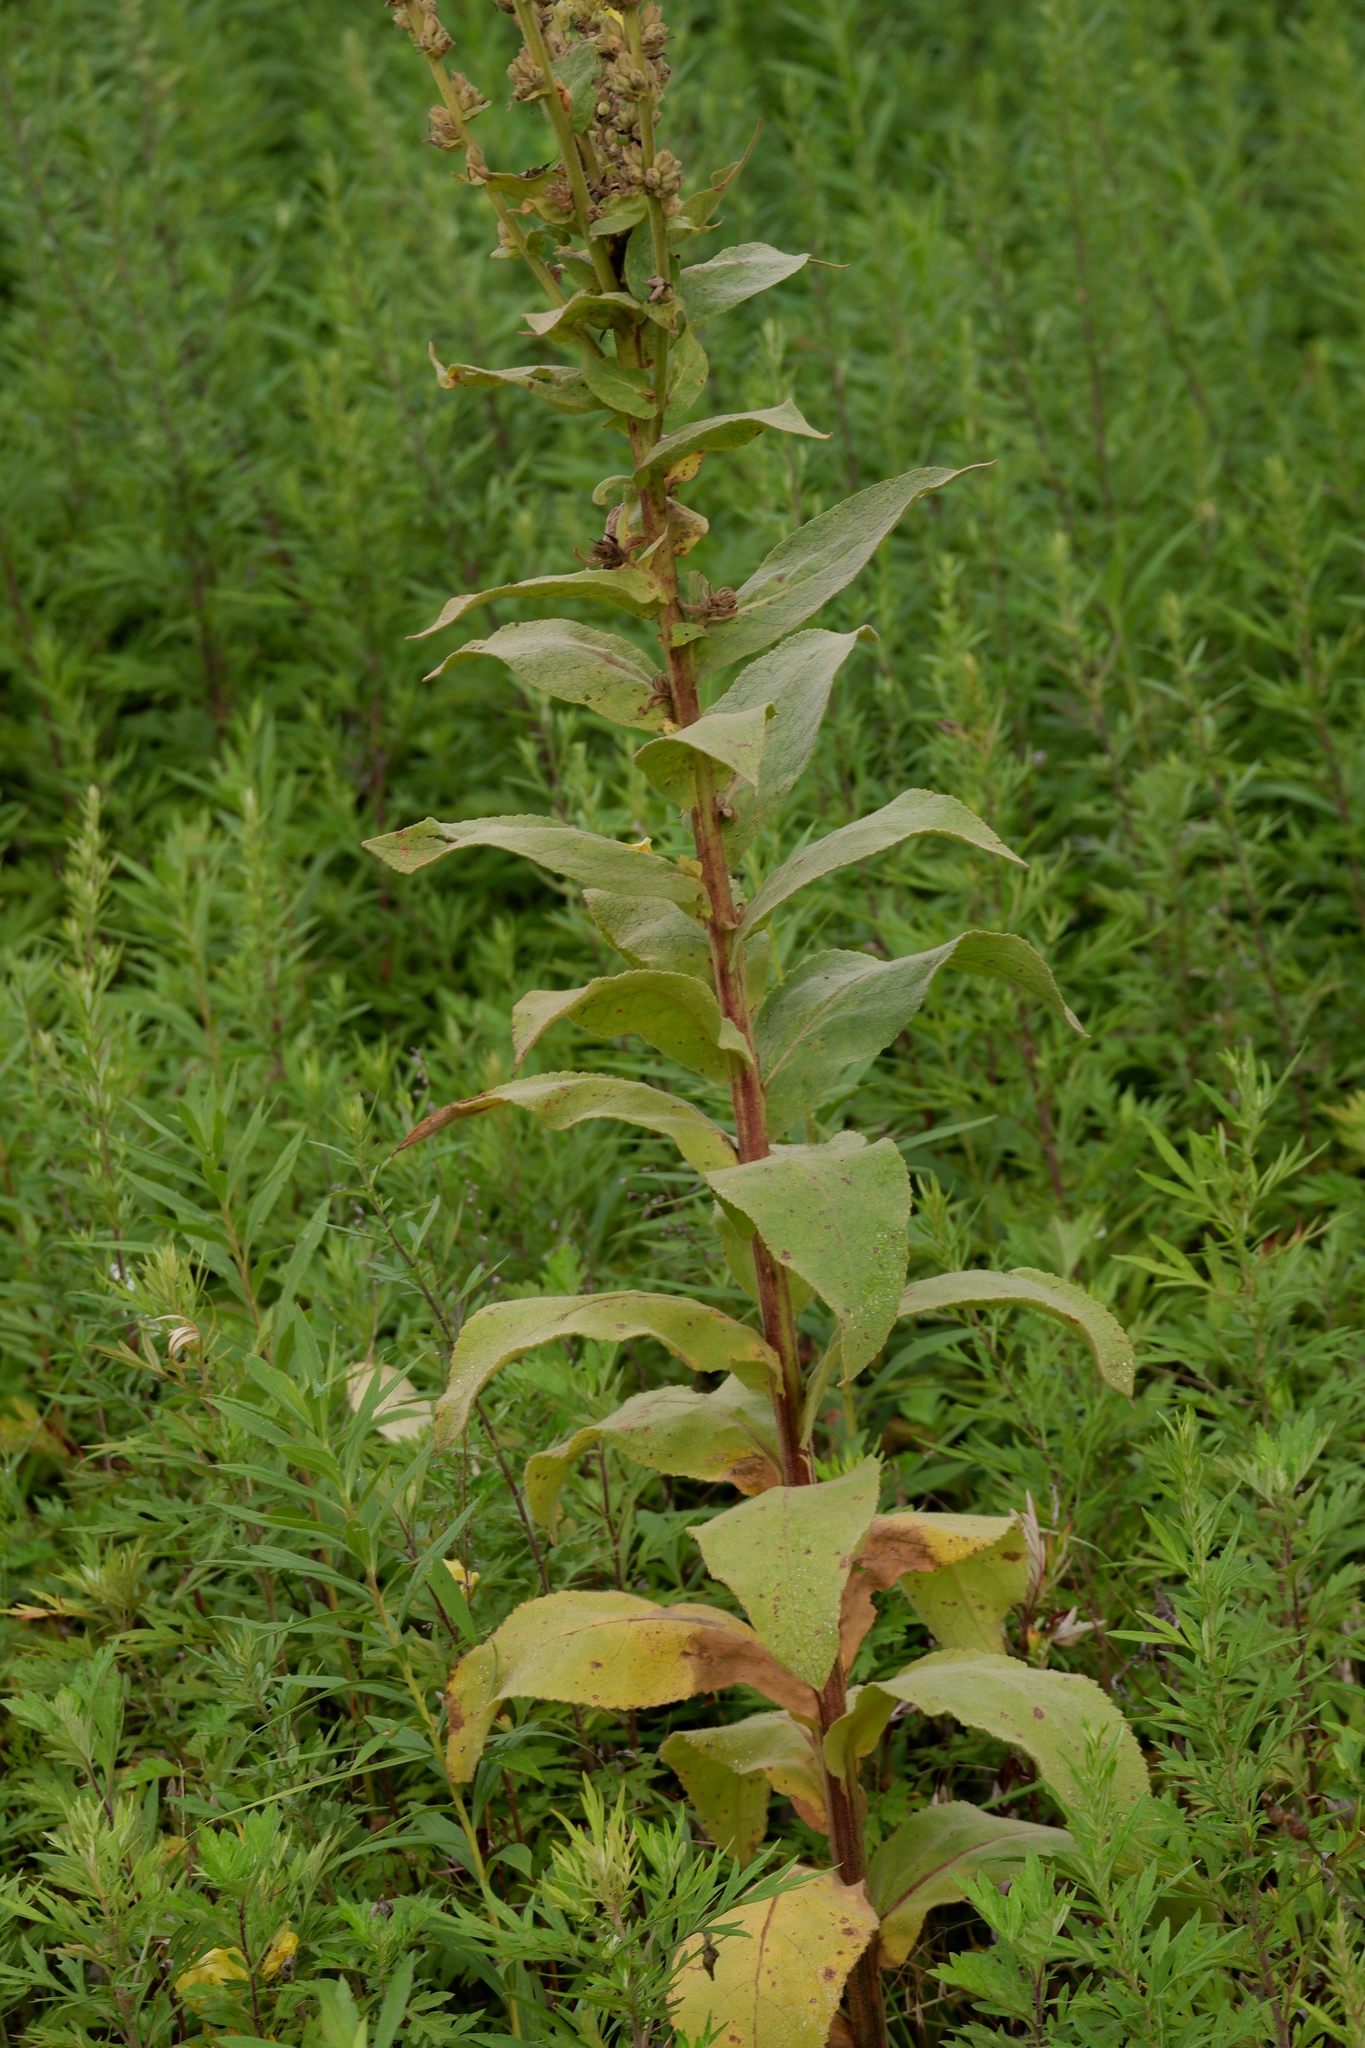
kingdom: Plantae
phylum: Tracheophyta
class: Magnoliopsida
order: Lamiales
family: Scrophulariaceae
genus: Verbascum
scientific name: Verbascum phlomoides
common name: Orange mullein
